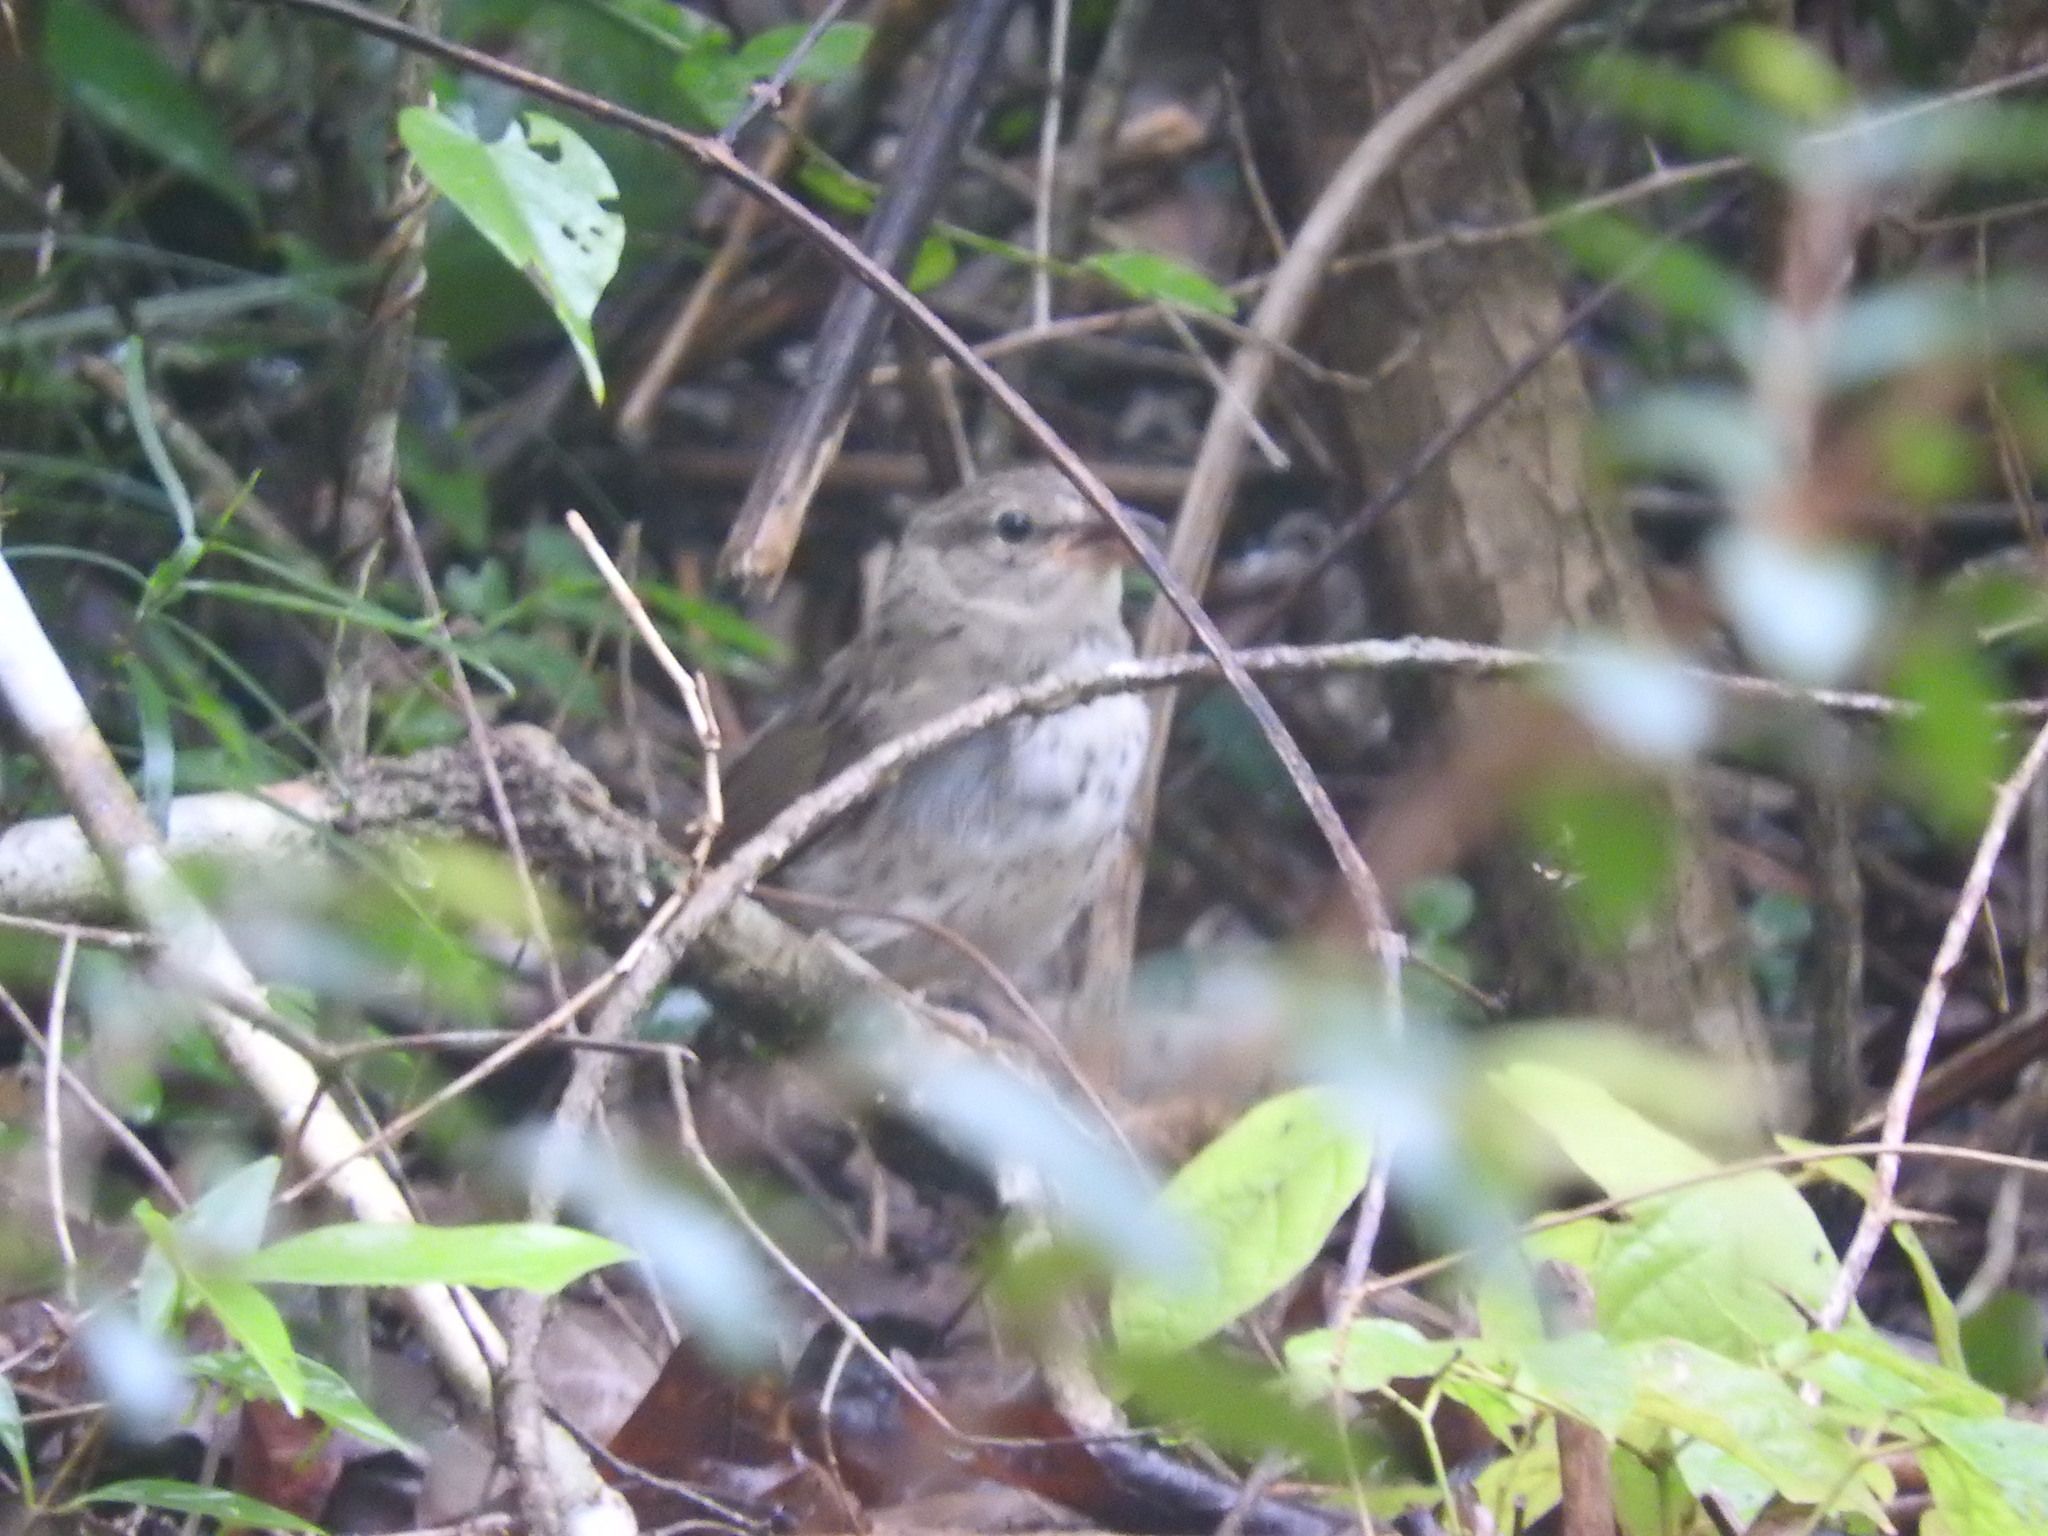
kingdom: Animalia
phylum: Chordata
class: Aves
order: Passeriformes
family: Passerellidae
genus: Arremonops
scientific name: Arremonops rufivirgatus
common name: Olive sparrow
